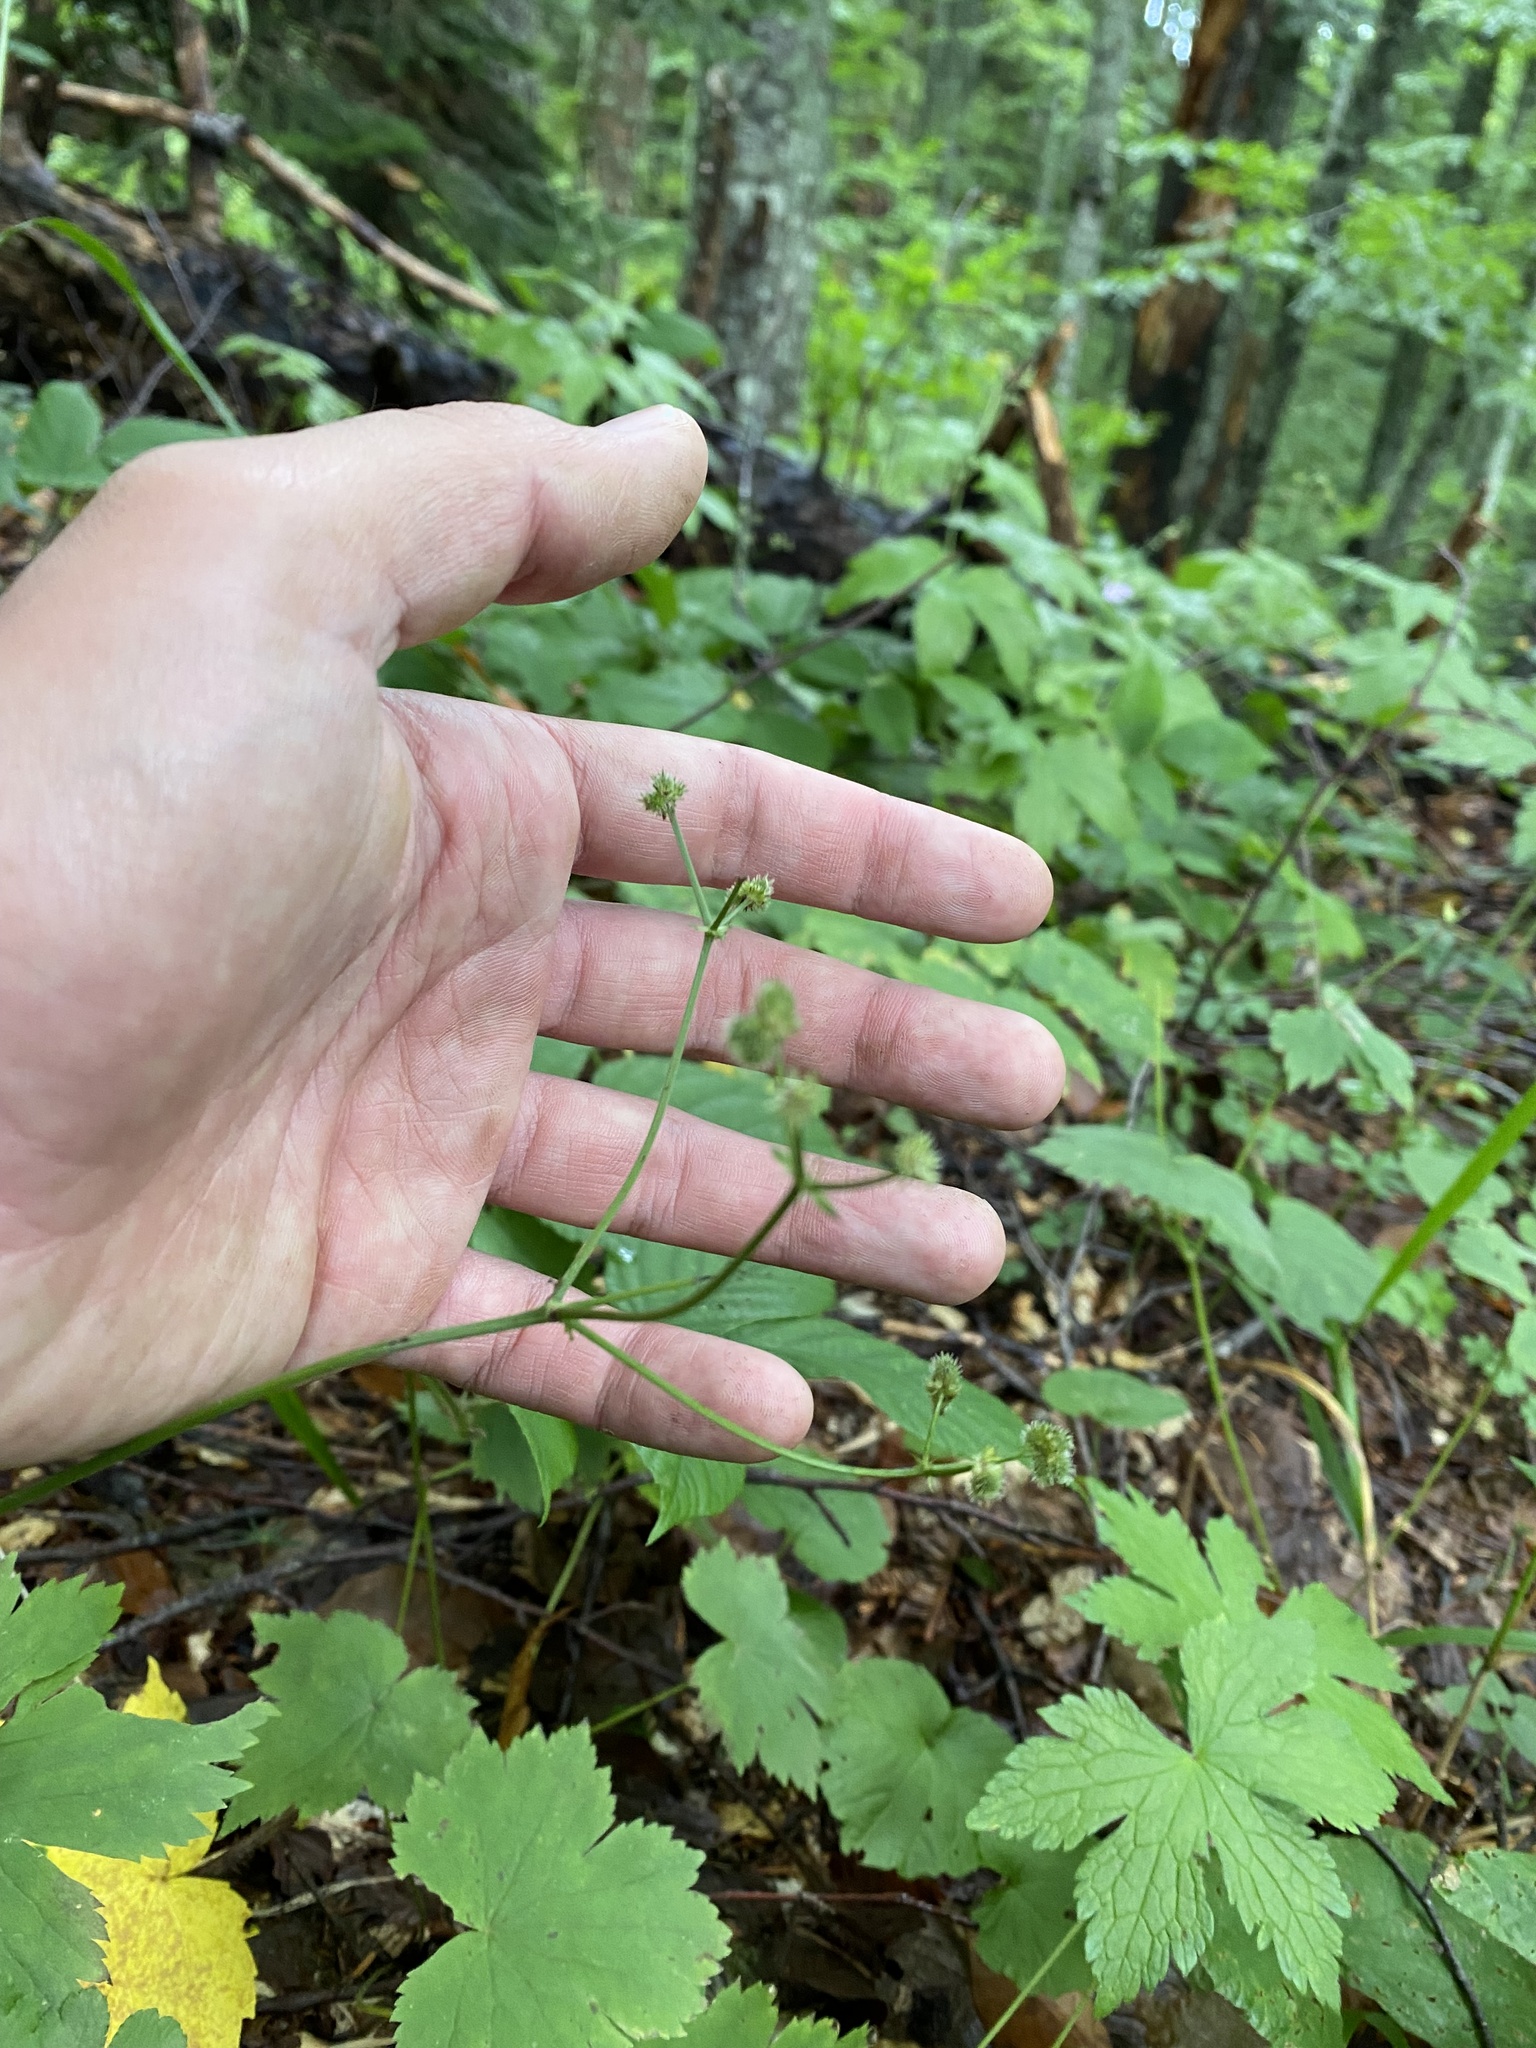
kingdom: Plantae
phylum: Tracheophyta
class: Magnoliopsida
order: Apiales
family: Apiaceae
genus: Pimpinella
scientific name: Pimpinella tripartita
